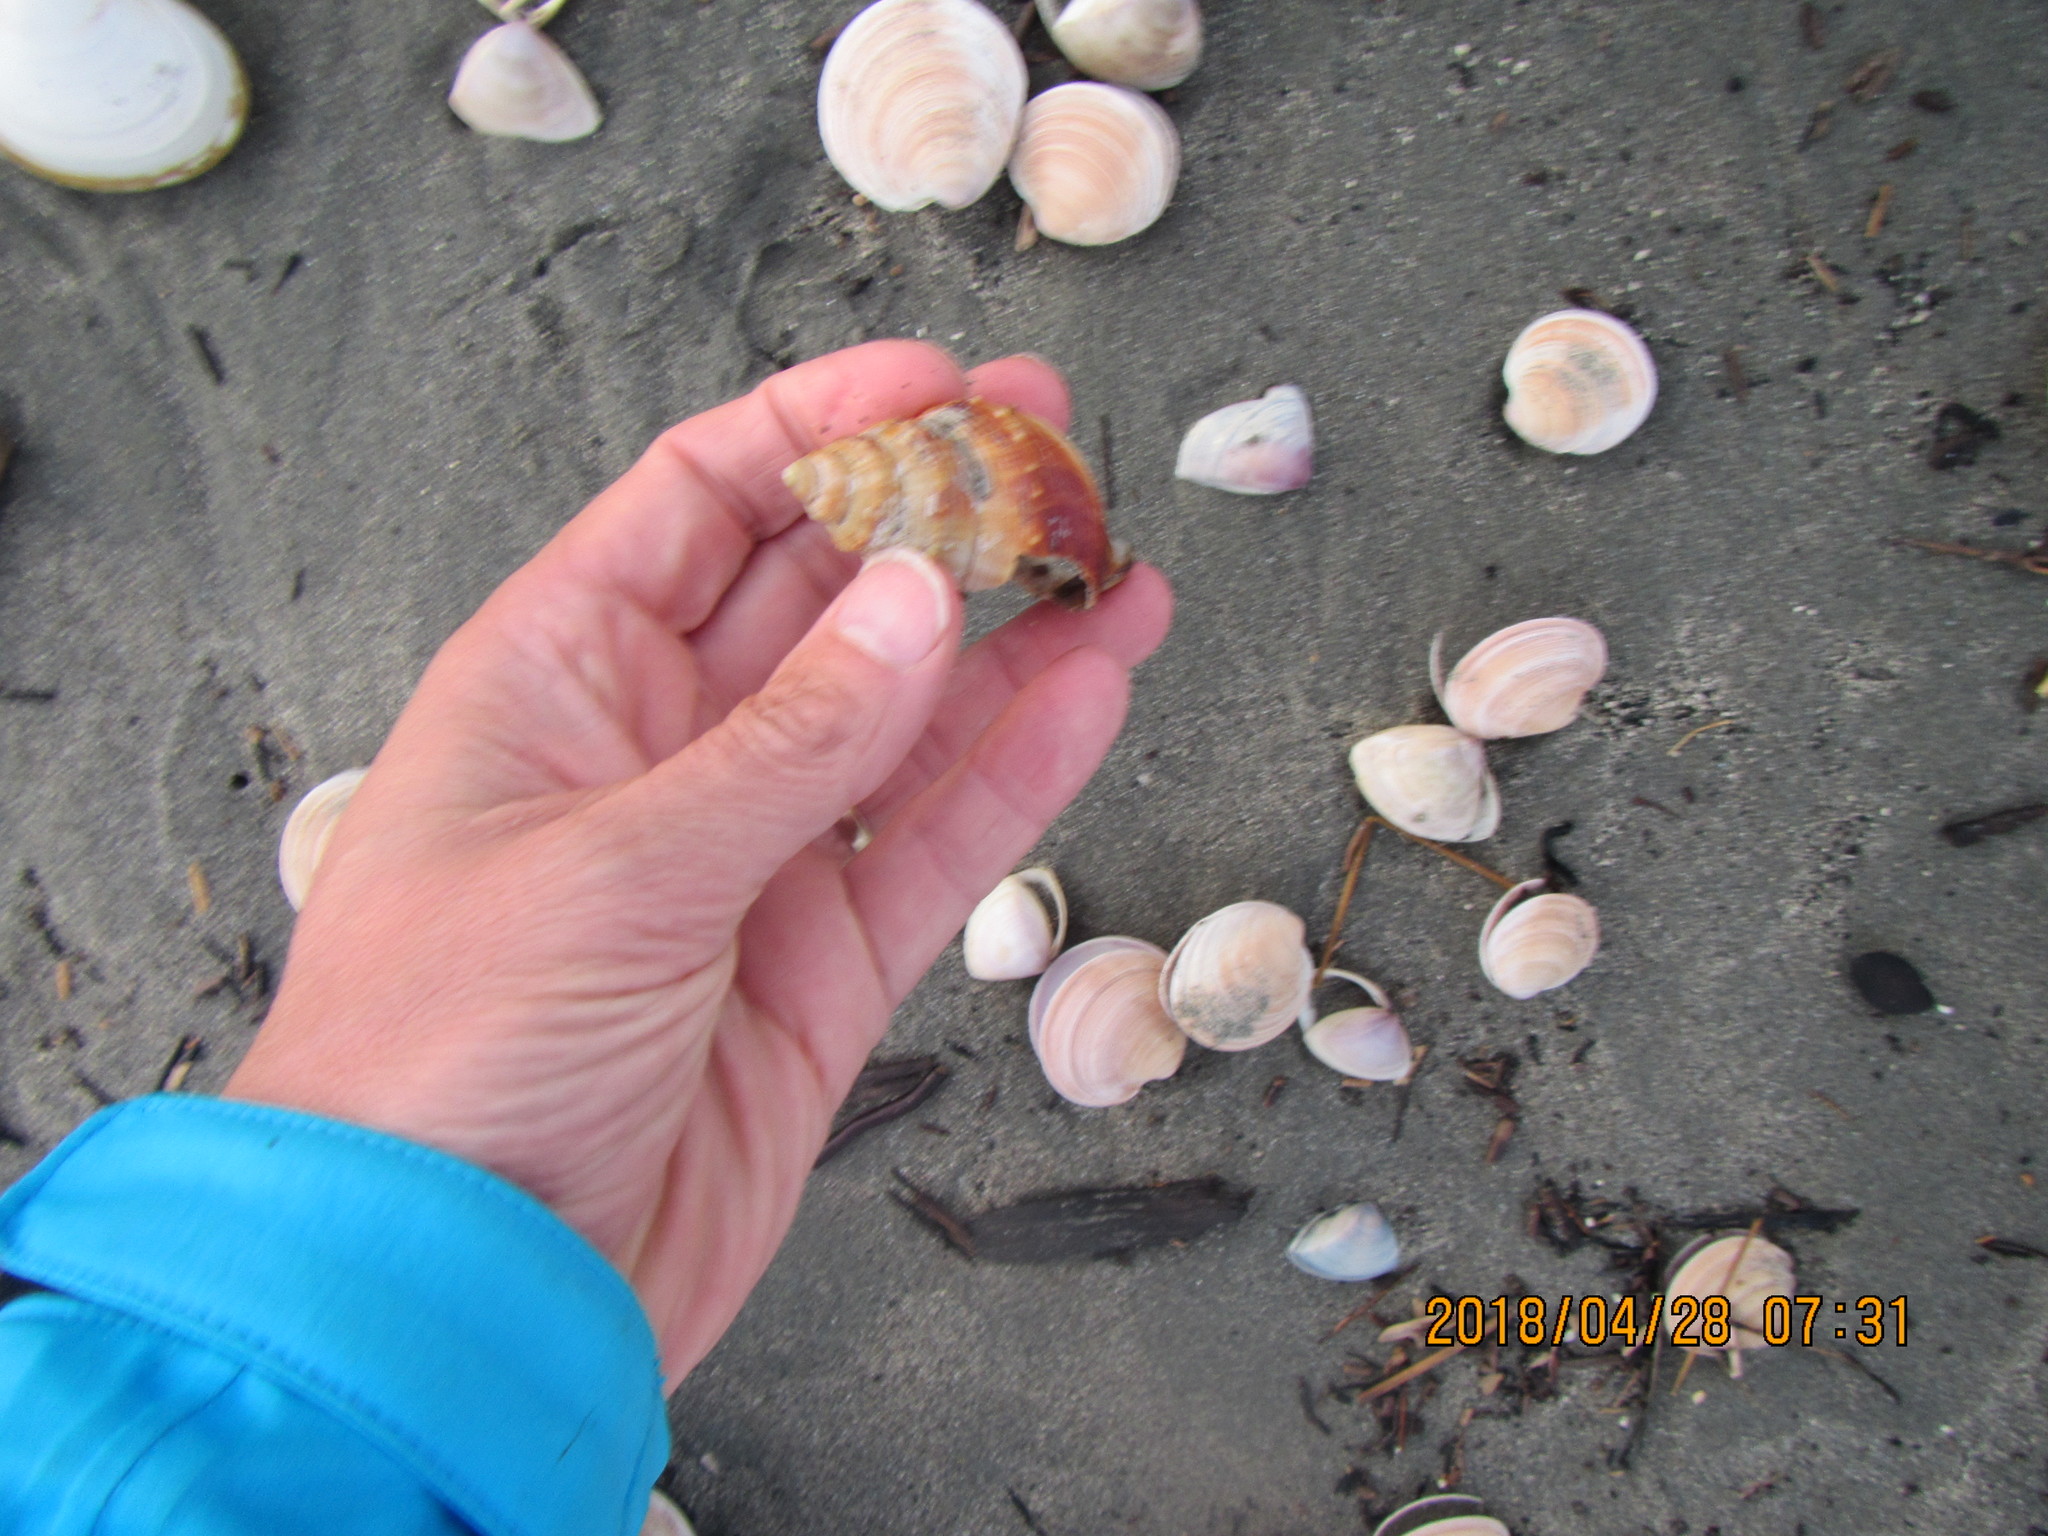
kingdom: Animalia
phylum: Mollusca
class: Gastropoda
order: Littorinimorpha
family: Struthiolariidae
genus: Struthiolaria
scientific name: Struthiolaria papulosa
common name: Large ostrich foot
